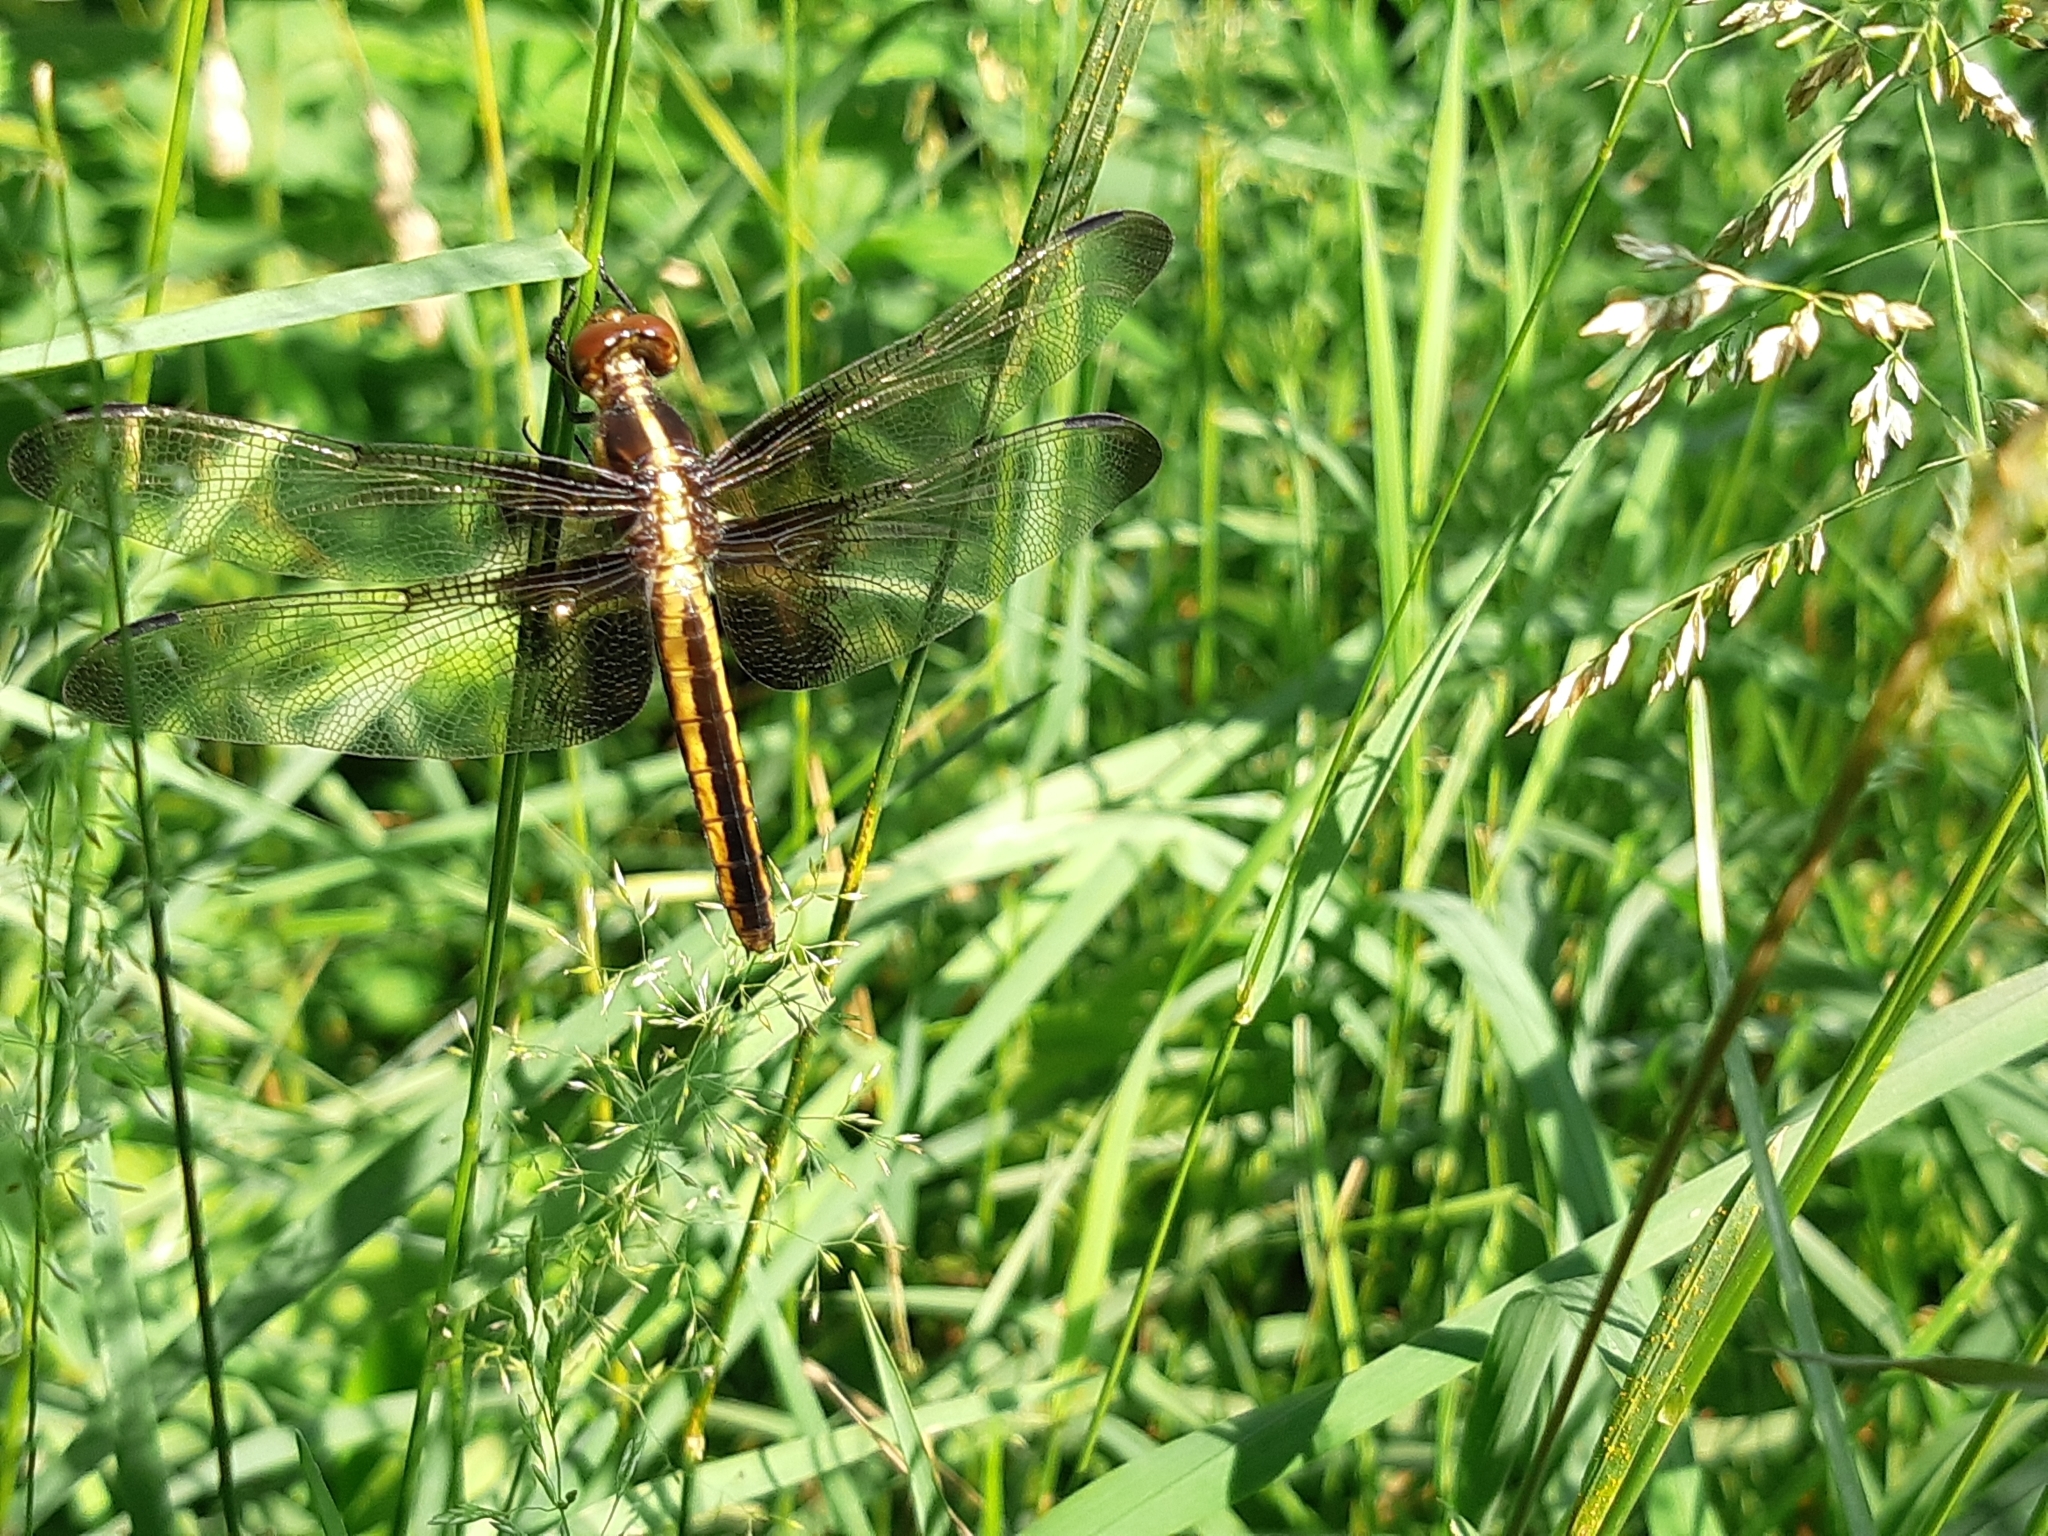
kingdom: Animalia
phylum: Arthropoda
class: Insecta
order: Odonata
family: Libellulidae
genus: Libellula
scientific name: Libellula luctuosa
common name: Widow skimmer
